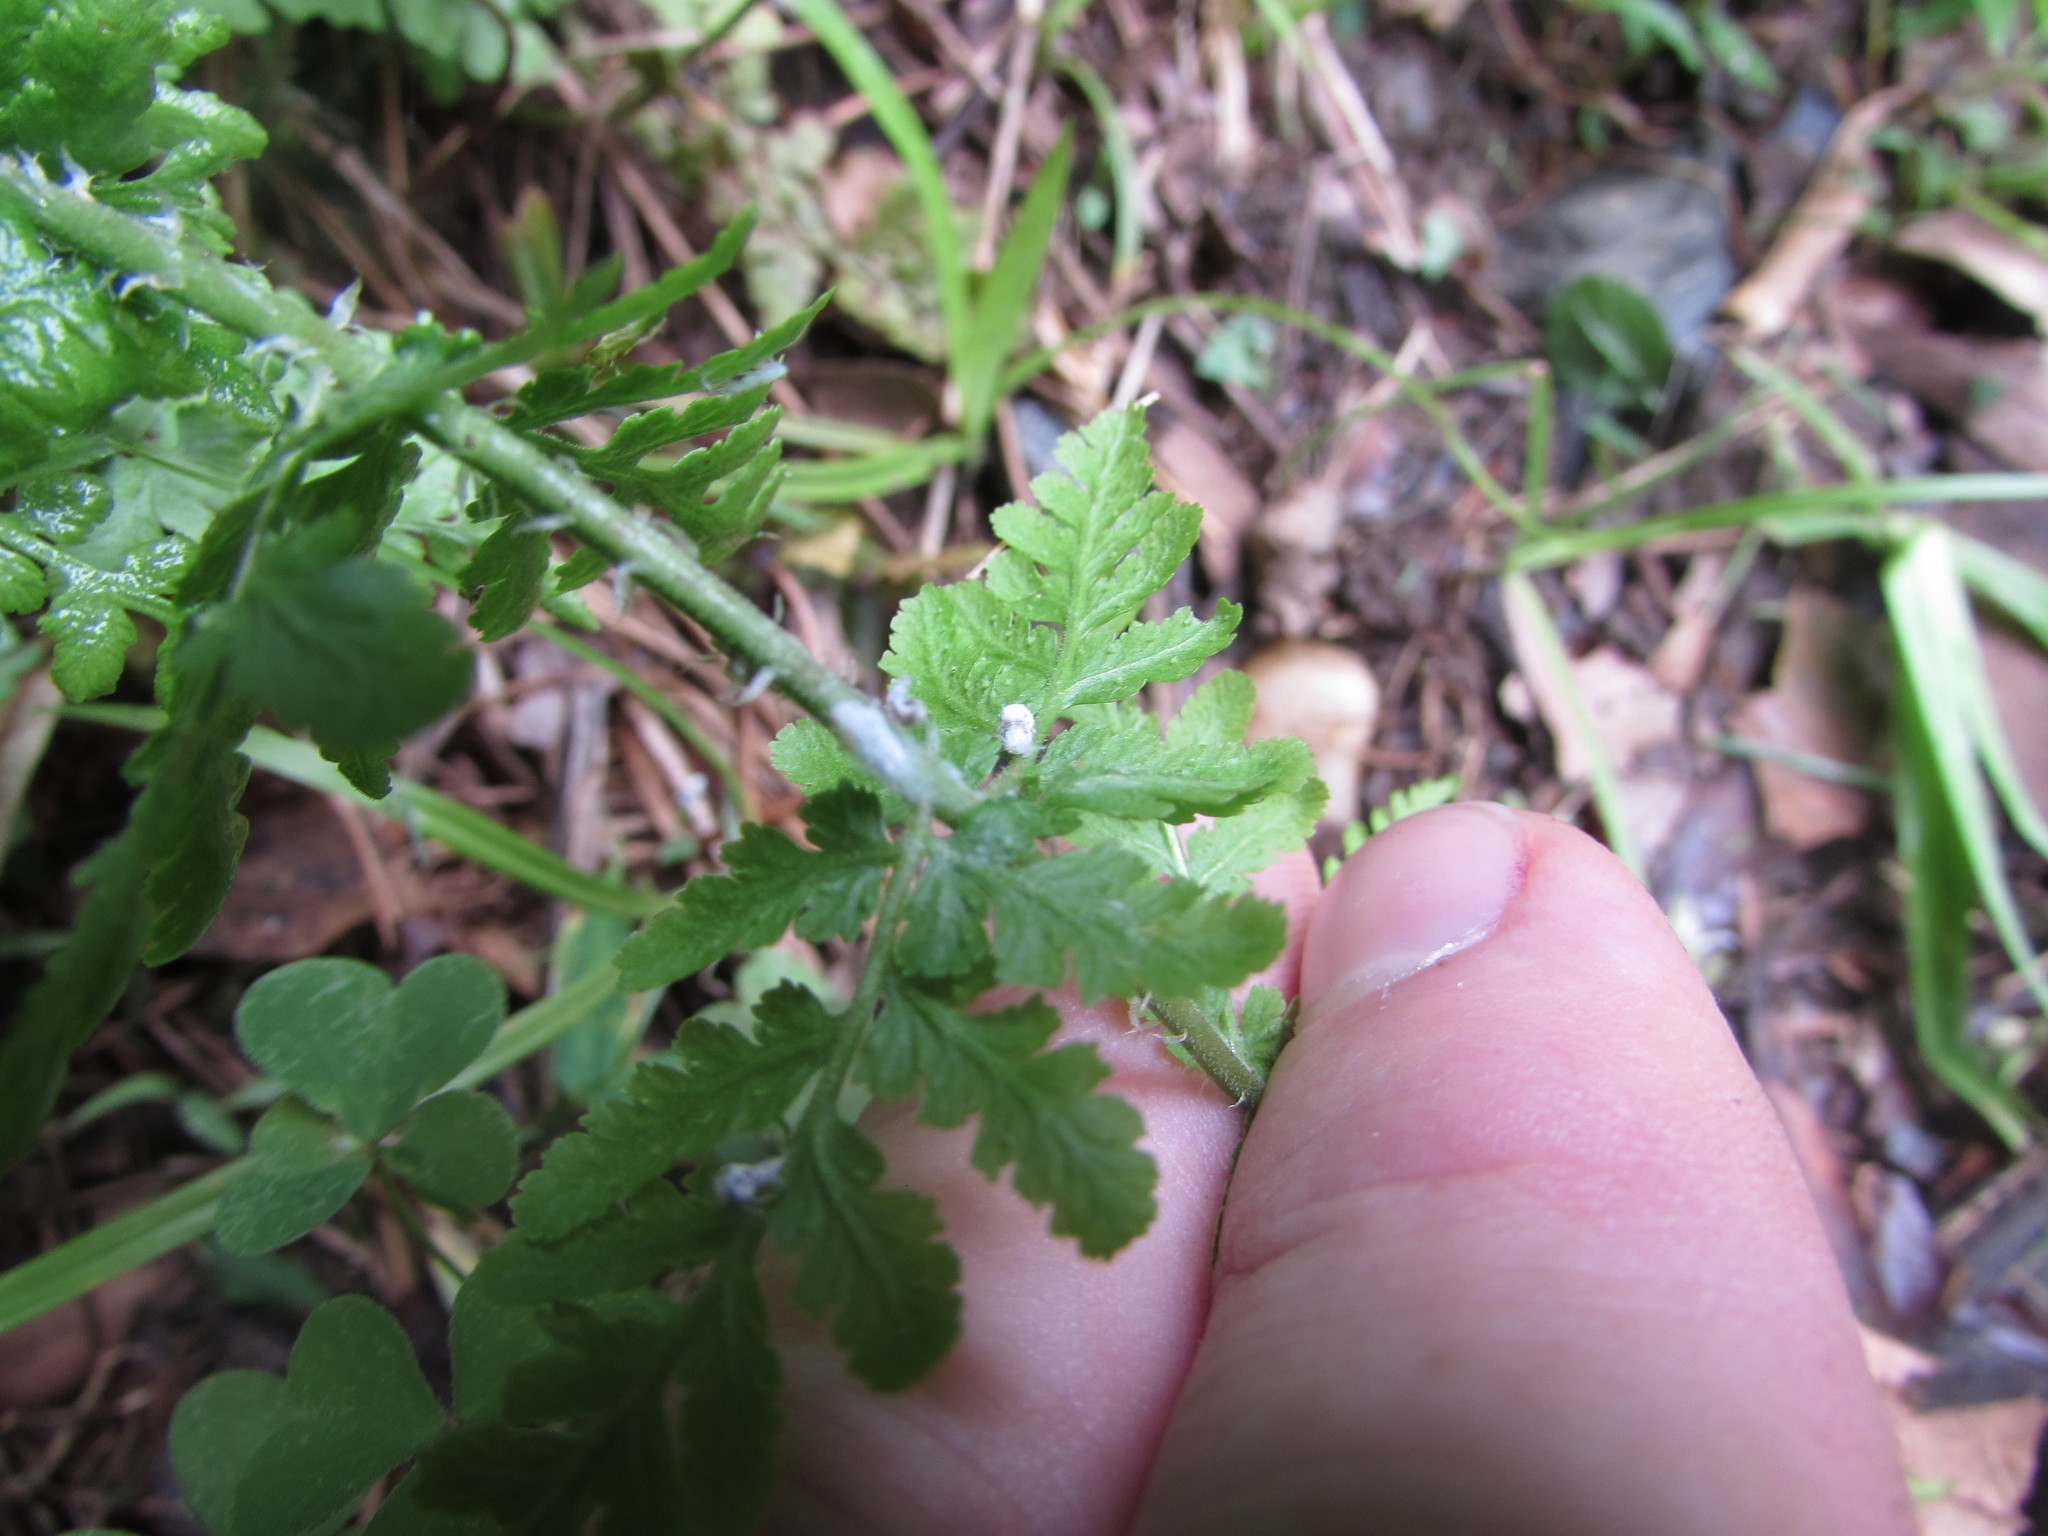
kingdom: Plantae
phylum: Tracheophyta
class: Polypodiopsida
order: Polypodiales
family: Woodsiaceae
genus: Physematium
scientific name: Physematium obtusum
